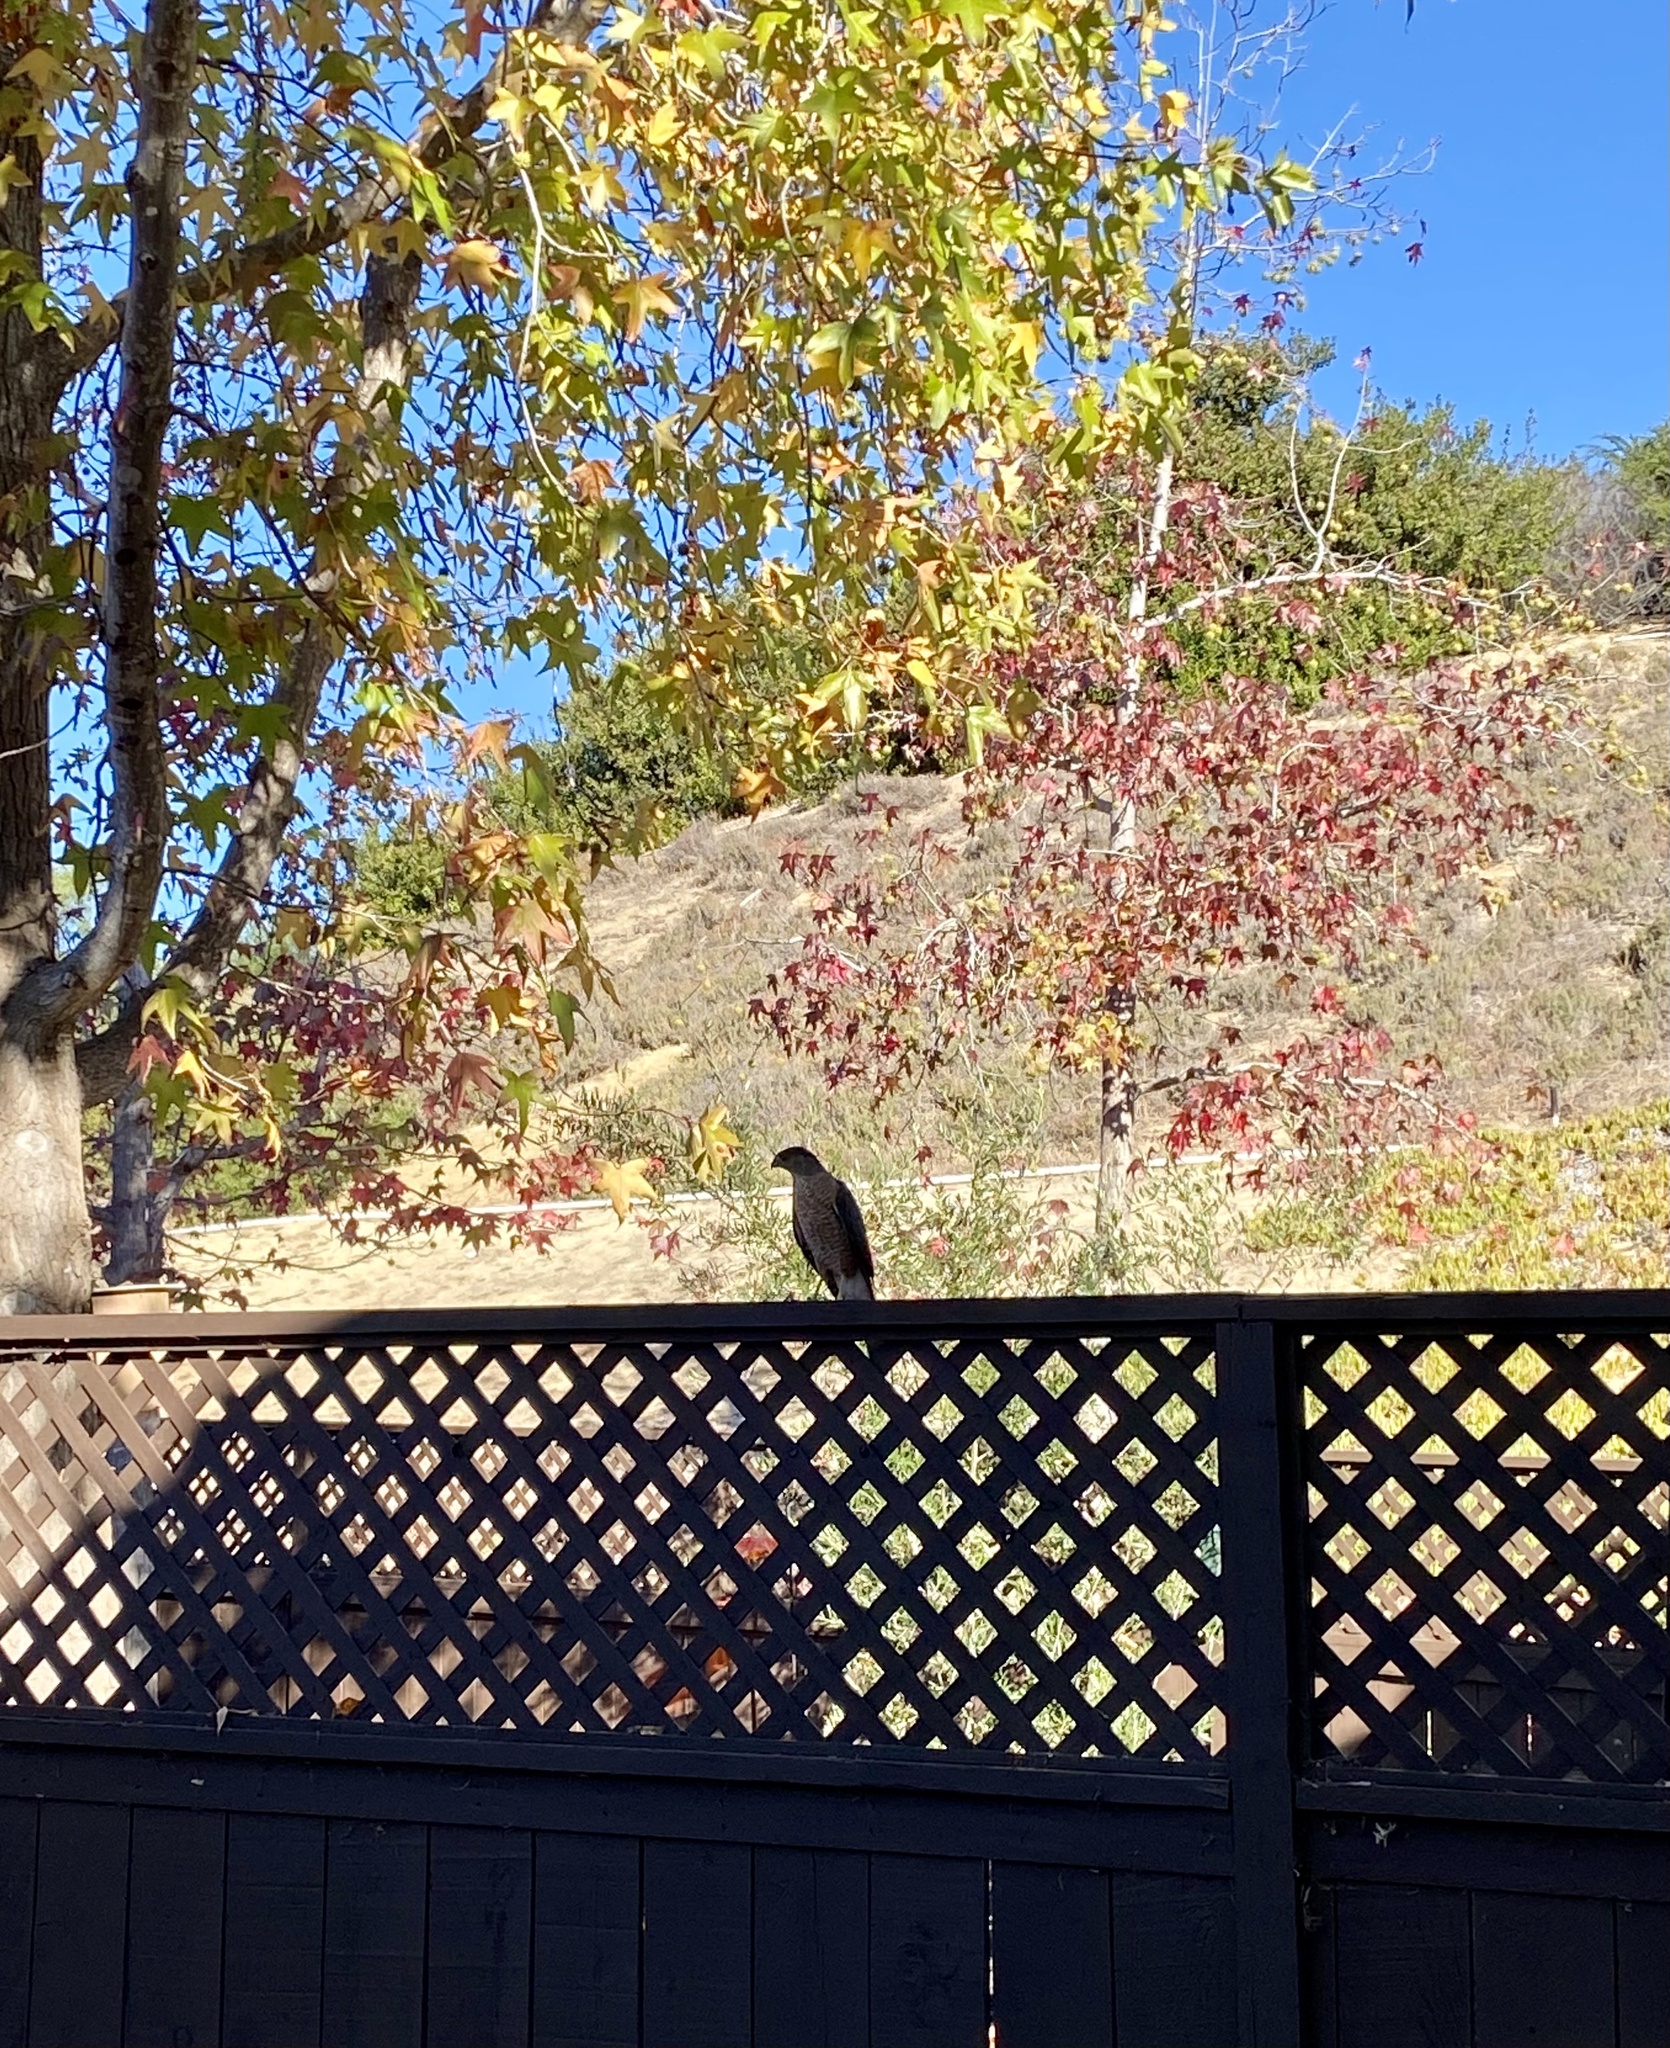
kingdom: Animalia
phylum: Chordata
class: Aves
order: Accipitriformes
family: Accipitridae
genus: Accipiter
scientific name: Accipiter cooperii
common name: Cooper's hawk
